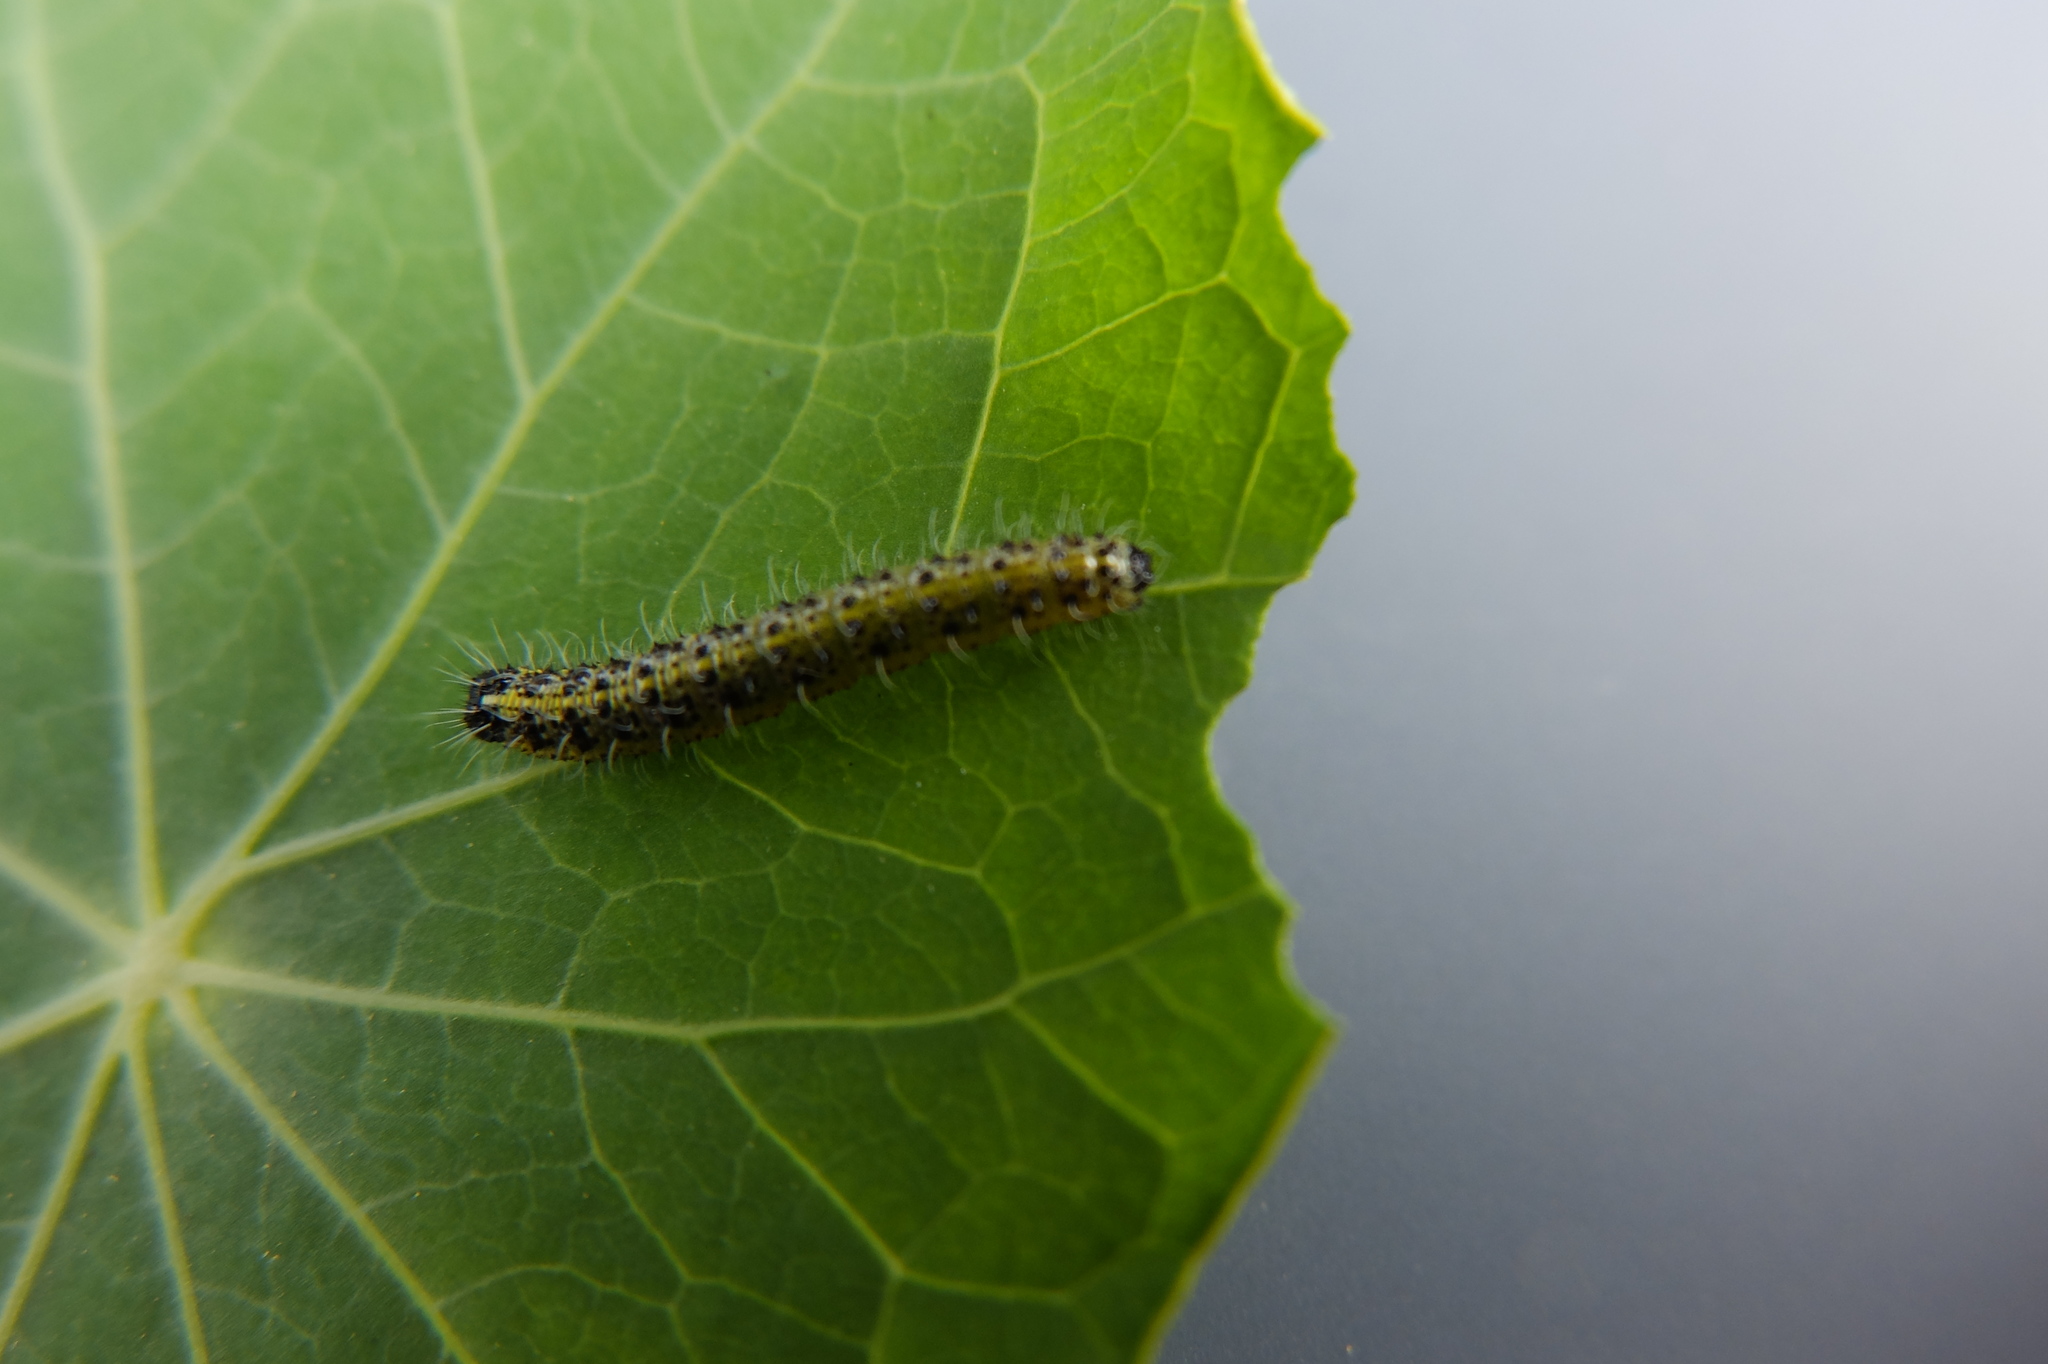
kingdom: Animalia
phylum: Arthropoda
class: Insecta
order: Lepidoptera
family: Pieridae
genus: Pieris
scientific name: Pieris brassicae
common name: Large white
